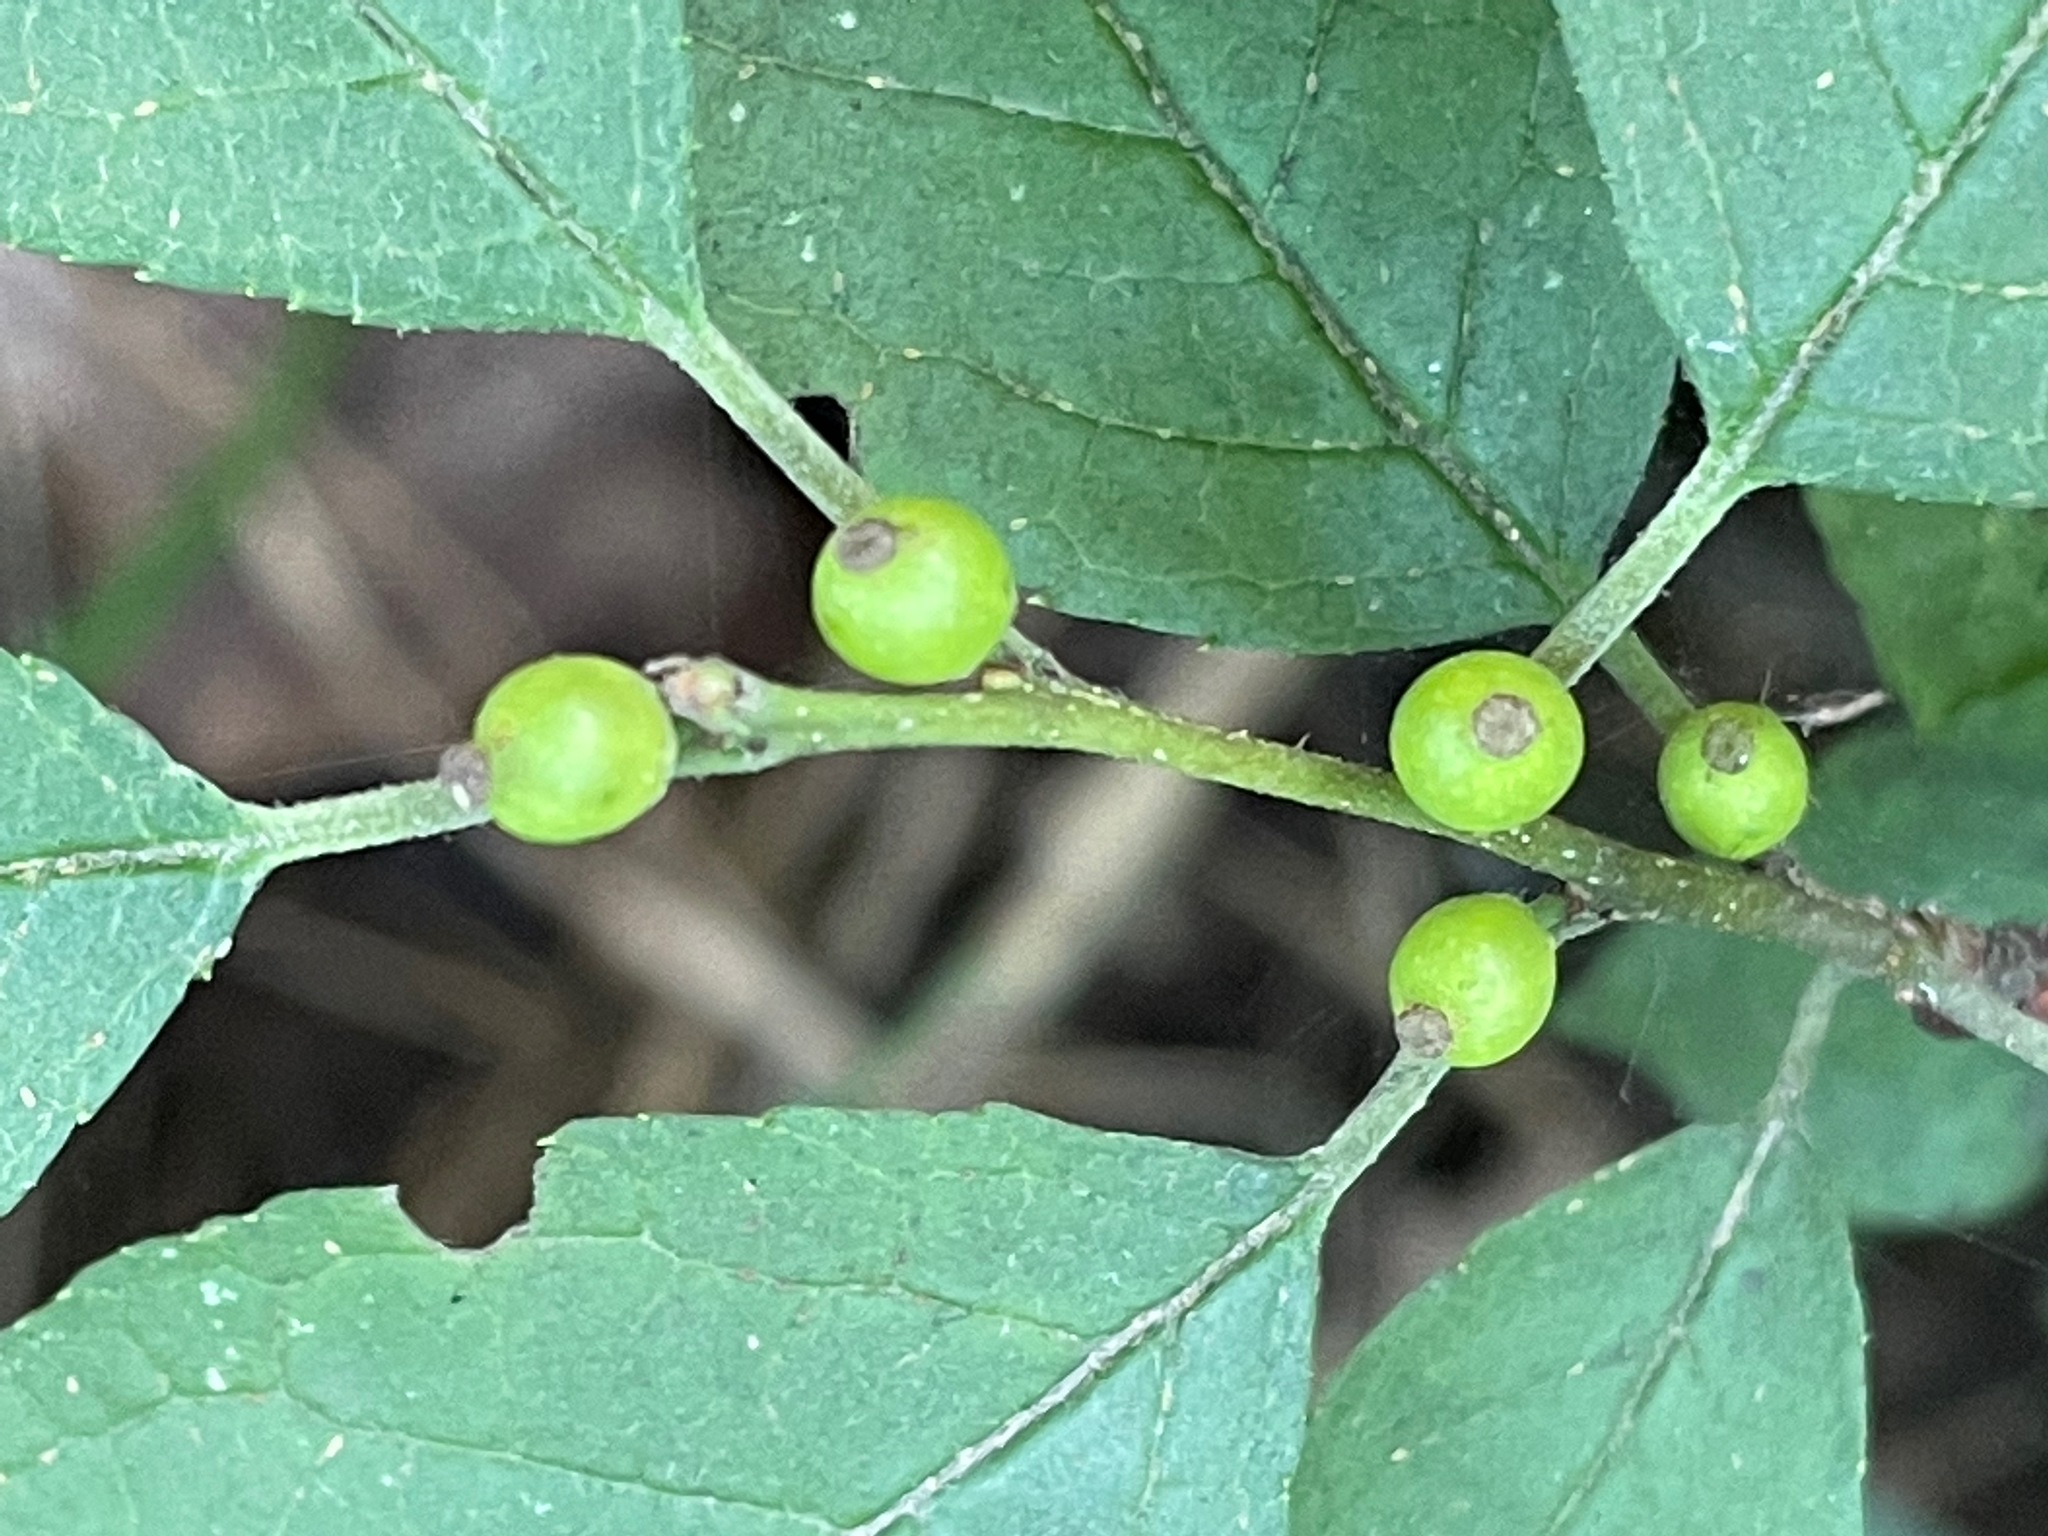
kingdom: Plantae
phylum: Tracheophyta
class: Magnoliopsida
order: Aquifoliales
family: Aquifoliaceae
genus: Ilex
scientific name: Ilex verticillata
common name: Virginia winterberry
